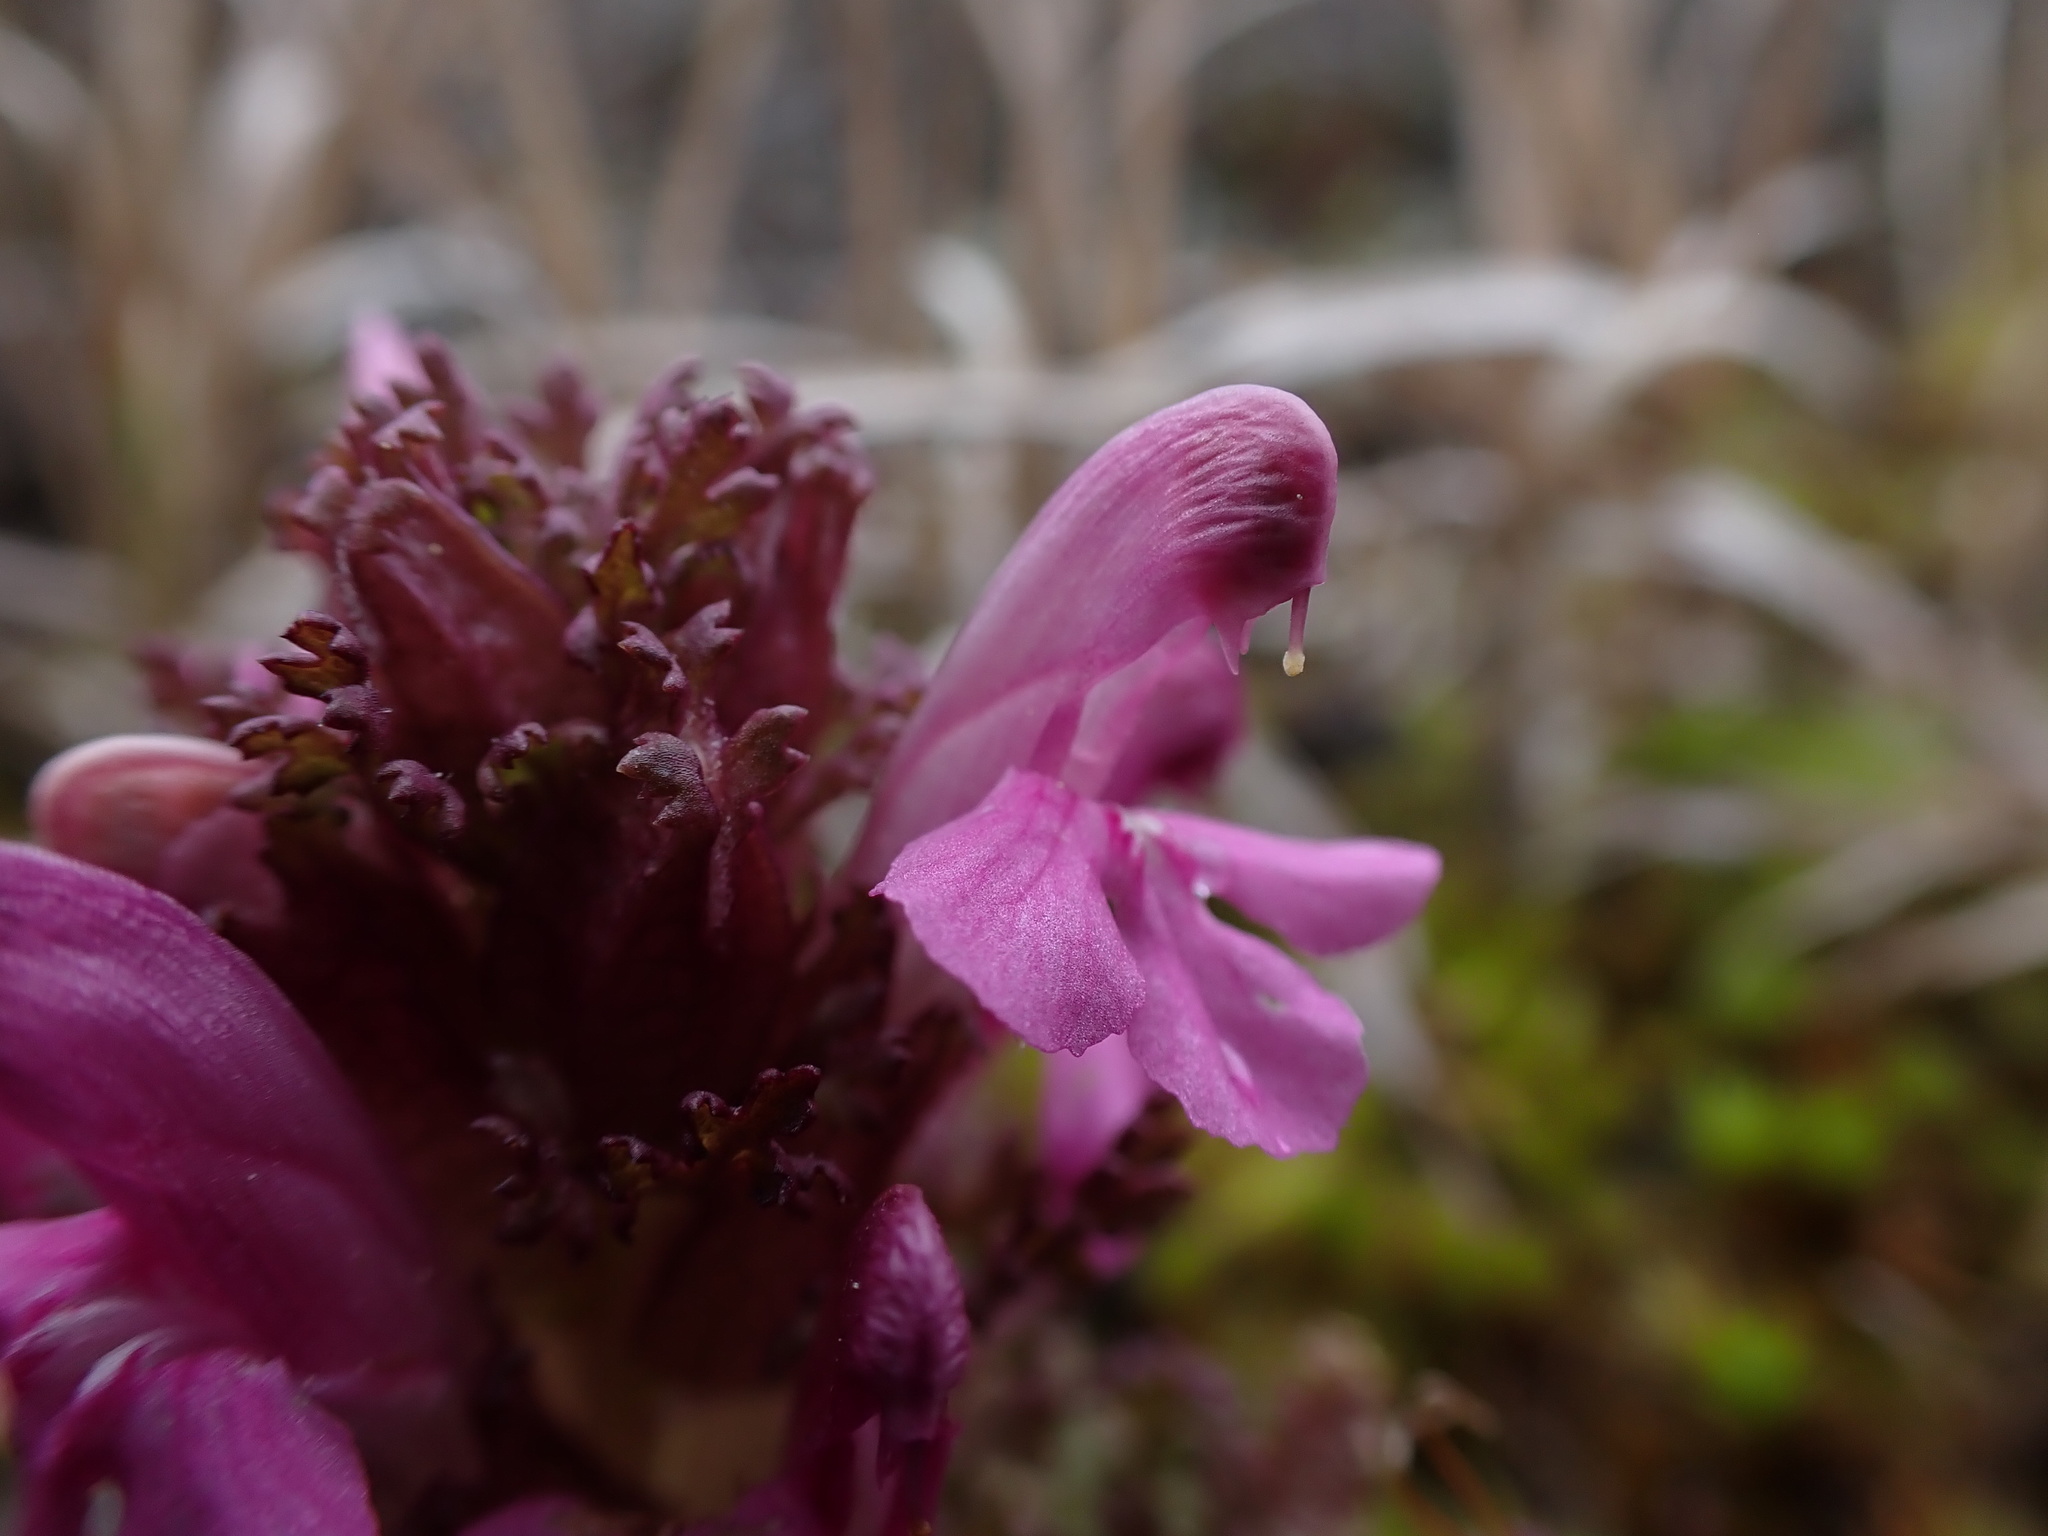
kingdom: Plantae
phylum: Tracheophyta
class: Magnoliopsida
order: Lamiales
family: Orobanchaceae
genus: Pedicularis
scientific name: Pedicularis sylvatica
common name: Lousewort
